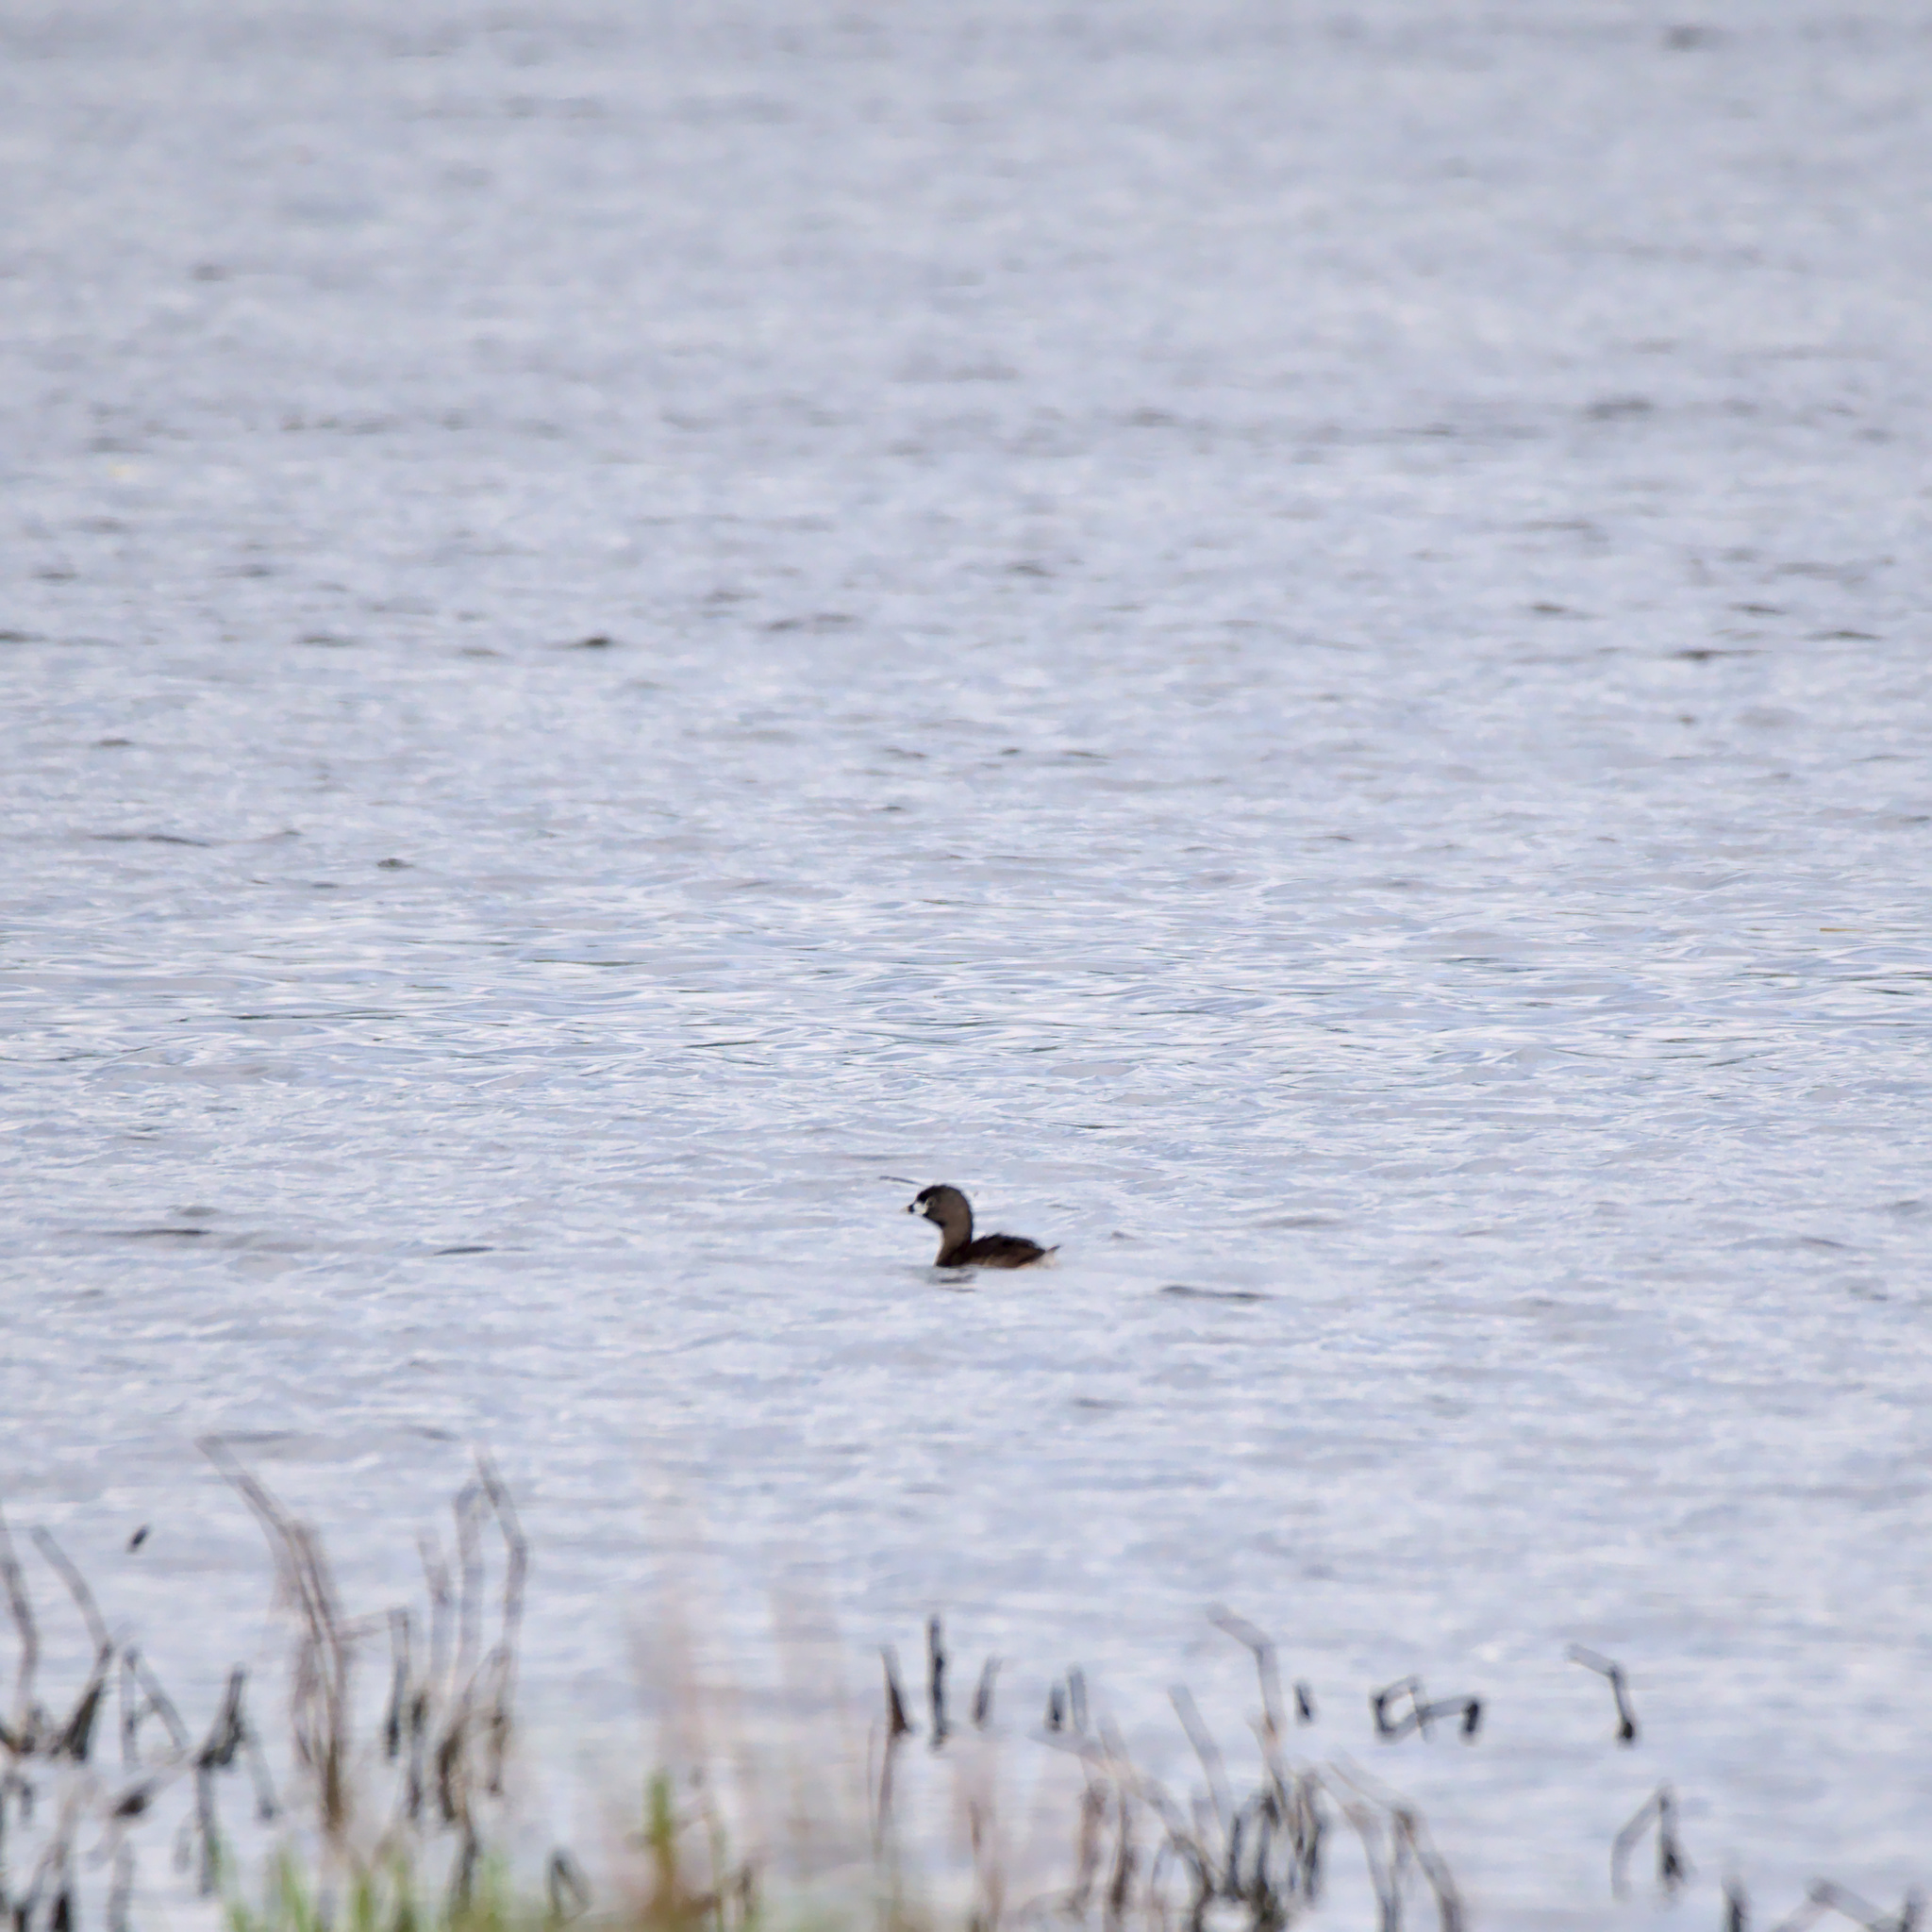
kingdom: Animalia
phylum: Chordata
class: Aves
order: Podicipediformes
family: Podicipedidae
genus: Podilymbus
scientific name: Podilymbus podiceps
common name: Pied-billed grebe
